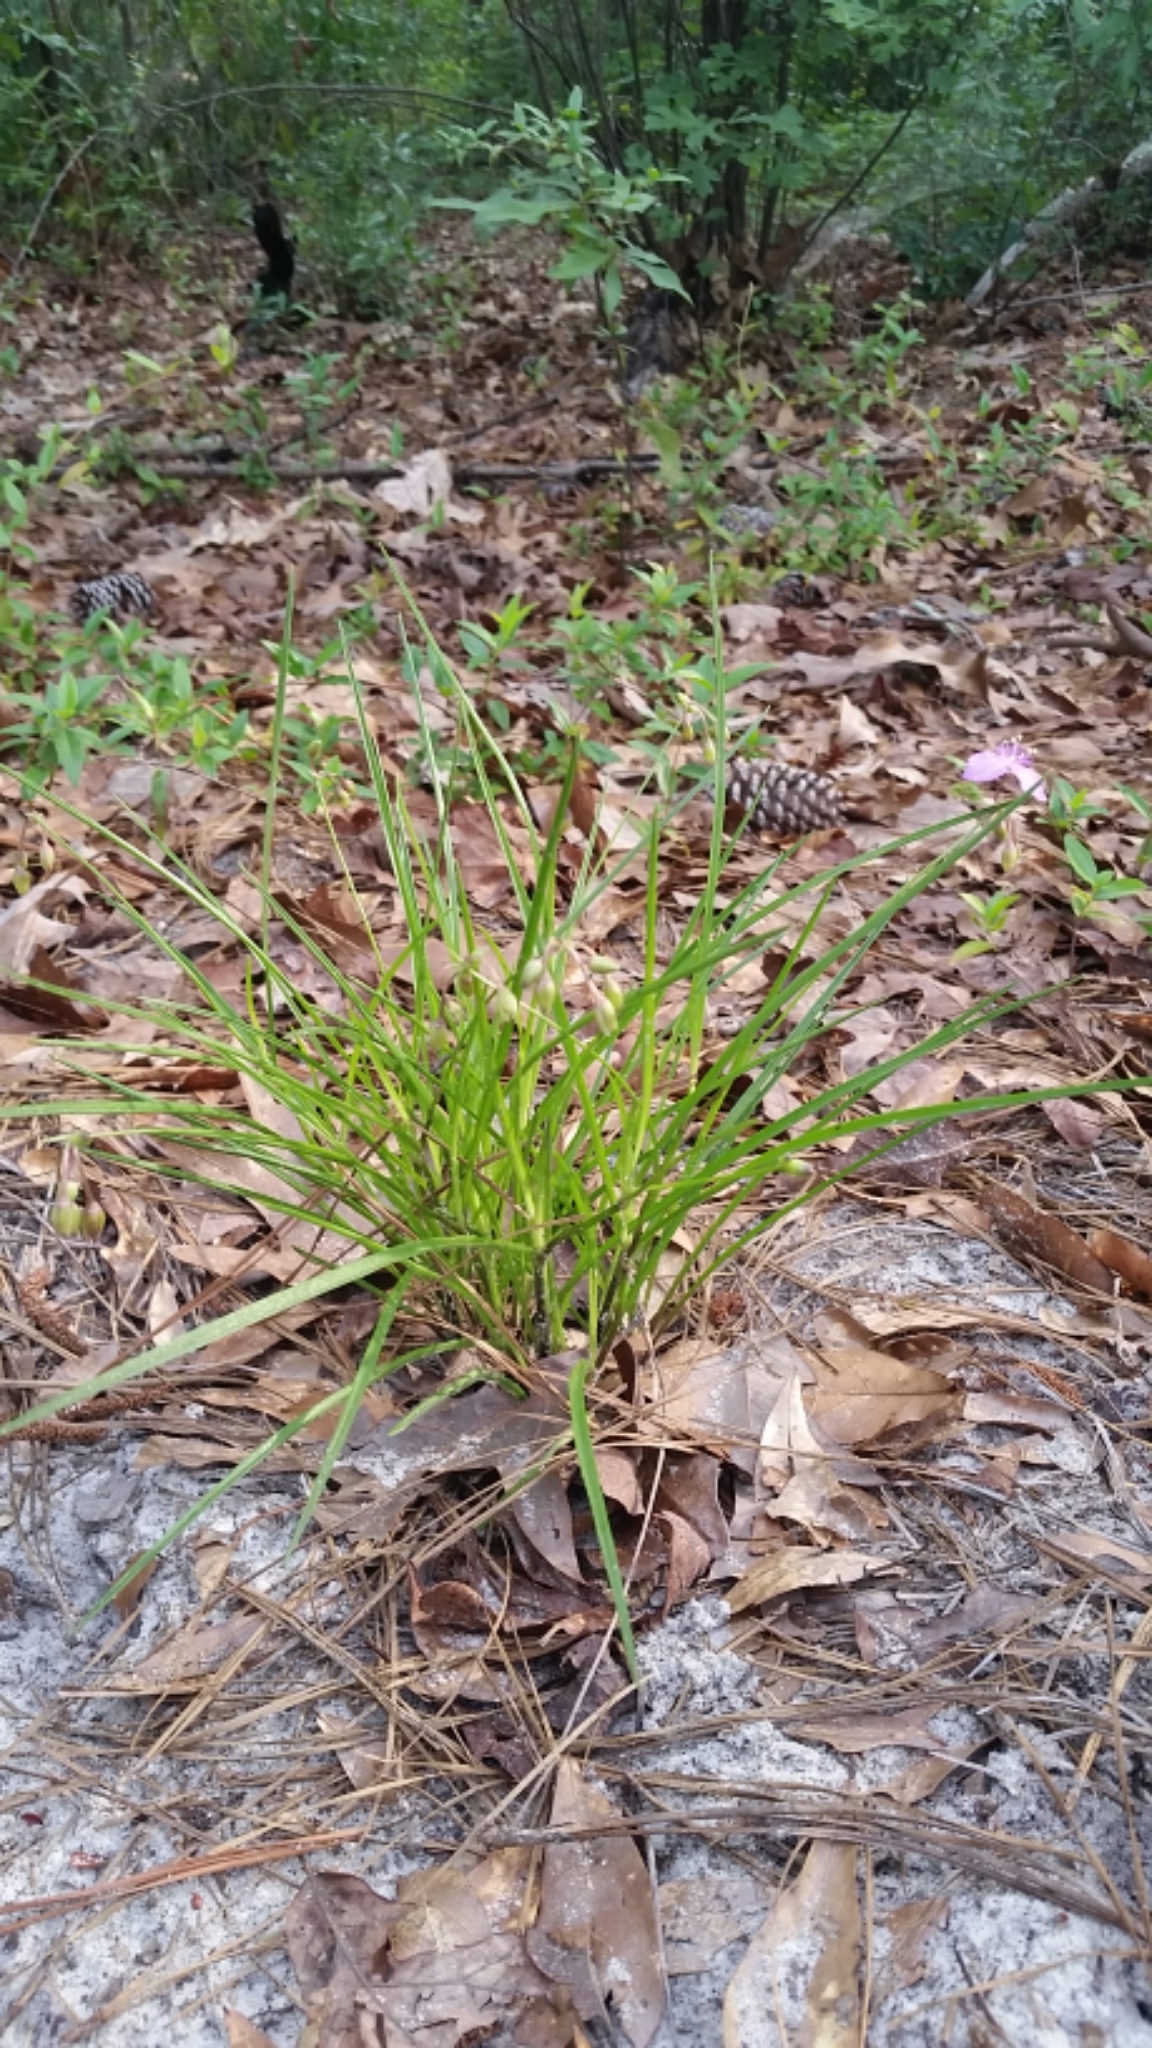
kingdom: Plantae
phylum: Tracheophyta
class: Liliopsida
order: Commelinales
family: Commelinaceae
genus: Callisia
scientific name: Callisia graminea
